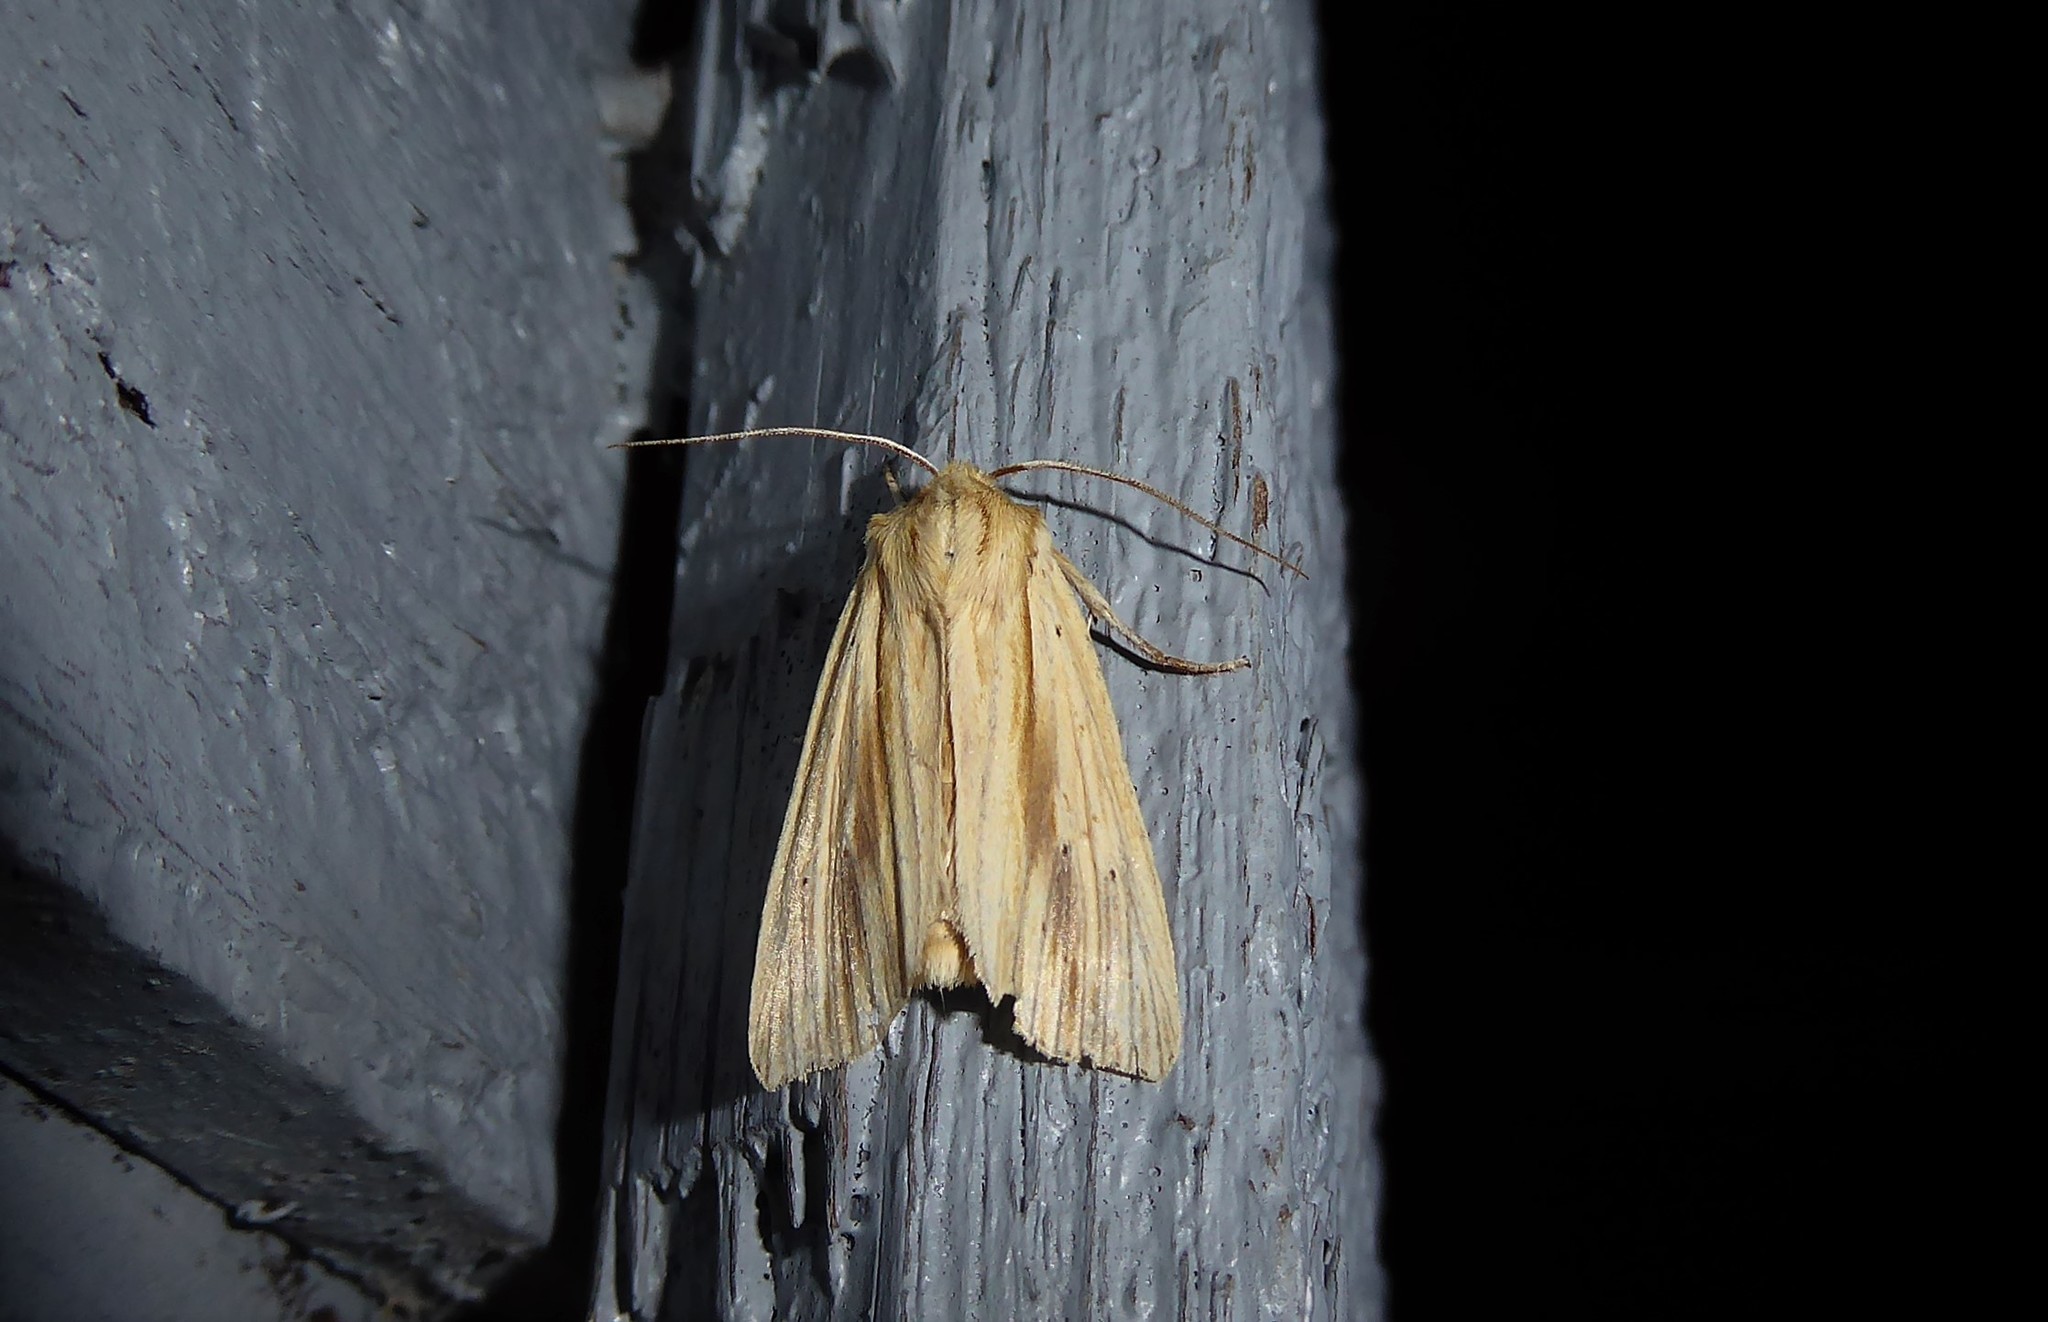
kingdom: Animalia
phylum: Arthropoda
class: Insecta
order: Lepidoptera
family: Noctuidae
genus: Ichneutica
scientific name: Ichneutica semivittata
